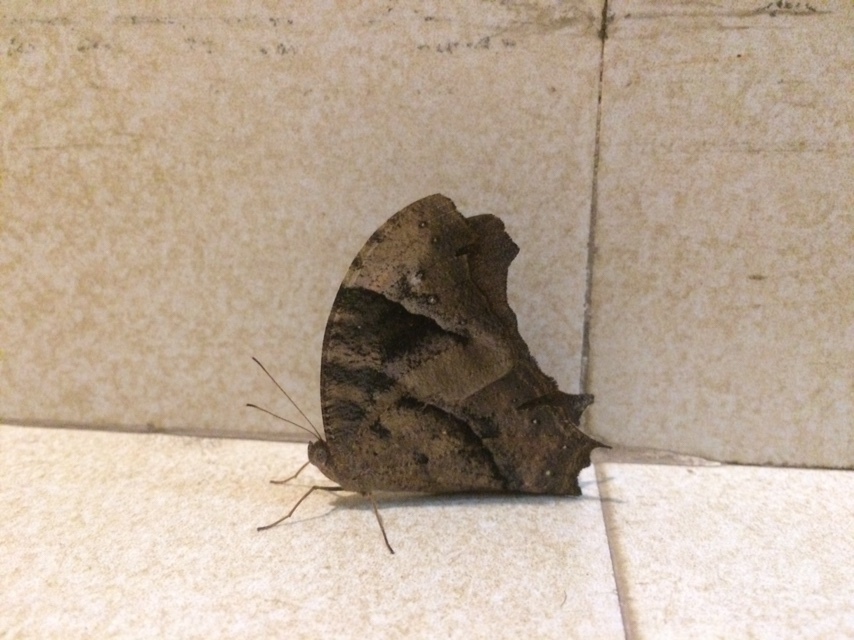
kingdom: Animalia
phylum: Arthropoda
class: Insecta
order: Lepidoptera
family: Nymphalidae
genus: Melanitis
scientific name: Melanitis leda
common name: Twilight brown
